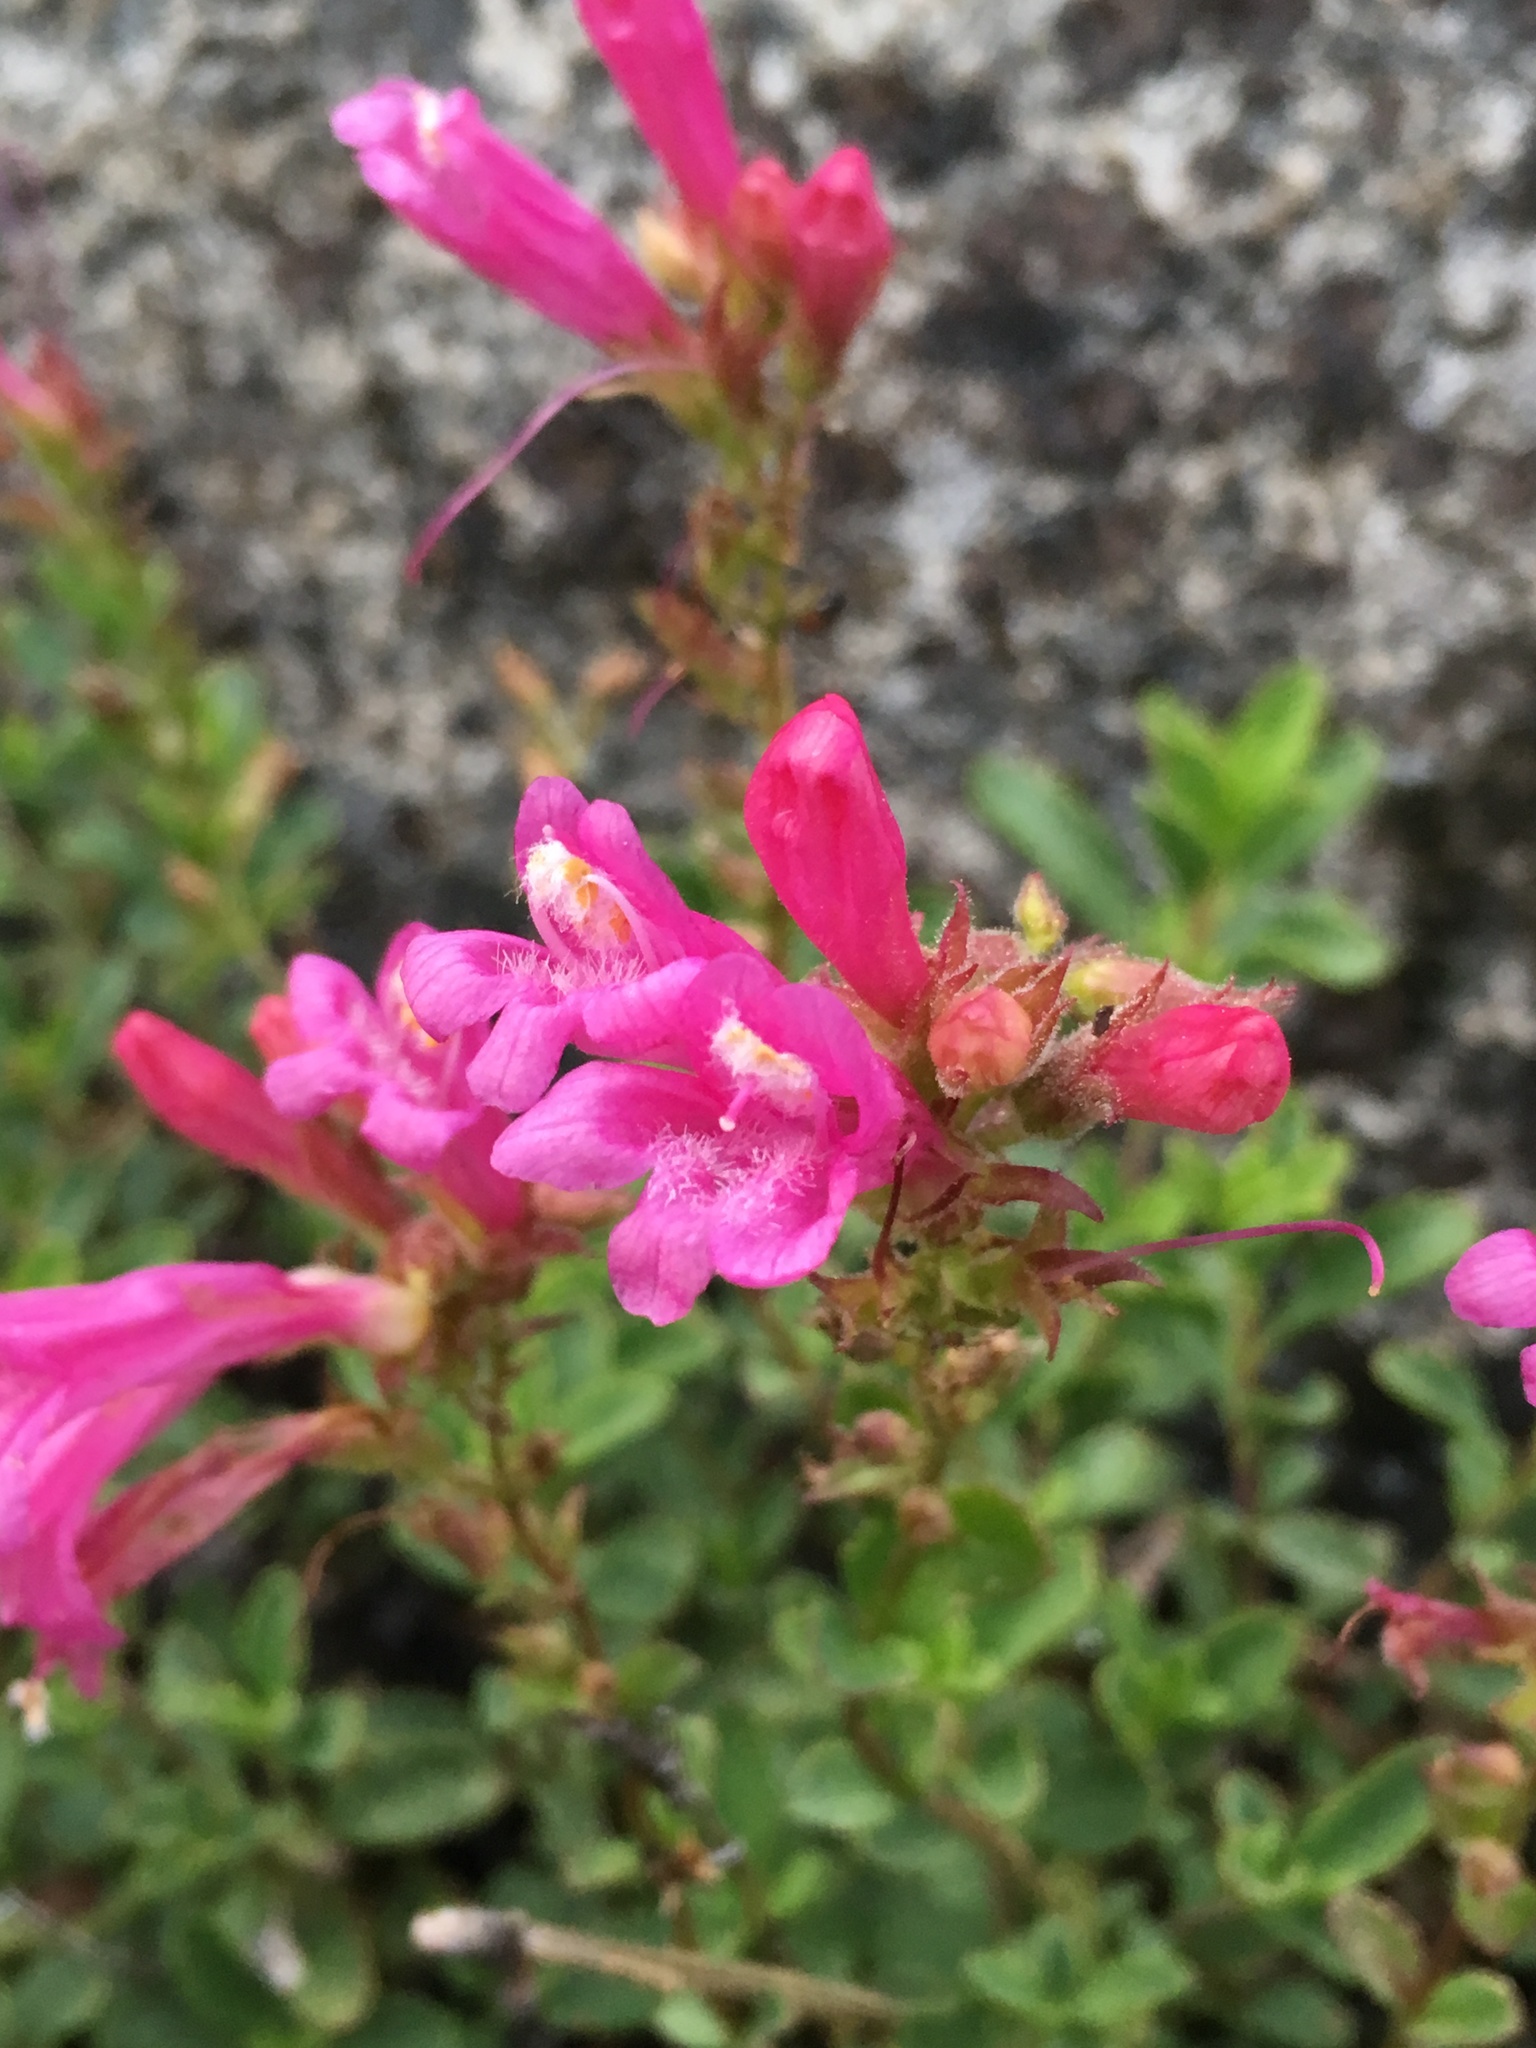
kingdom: Plantae
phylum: Tracheophyta
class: Magnoliopsida
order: Lamiales
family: Plantaginaceae
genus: Penstemon
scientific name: Penstemon newberryi
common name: Mountain-pride
